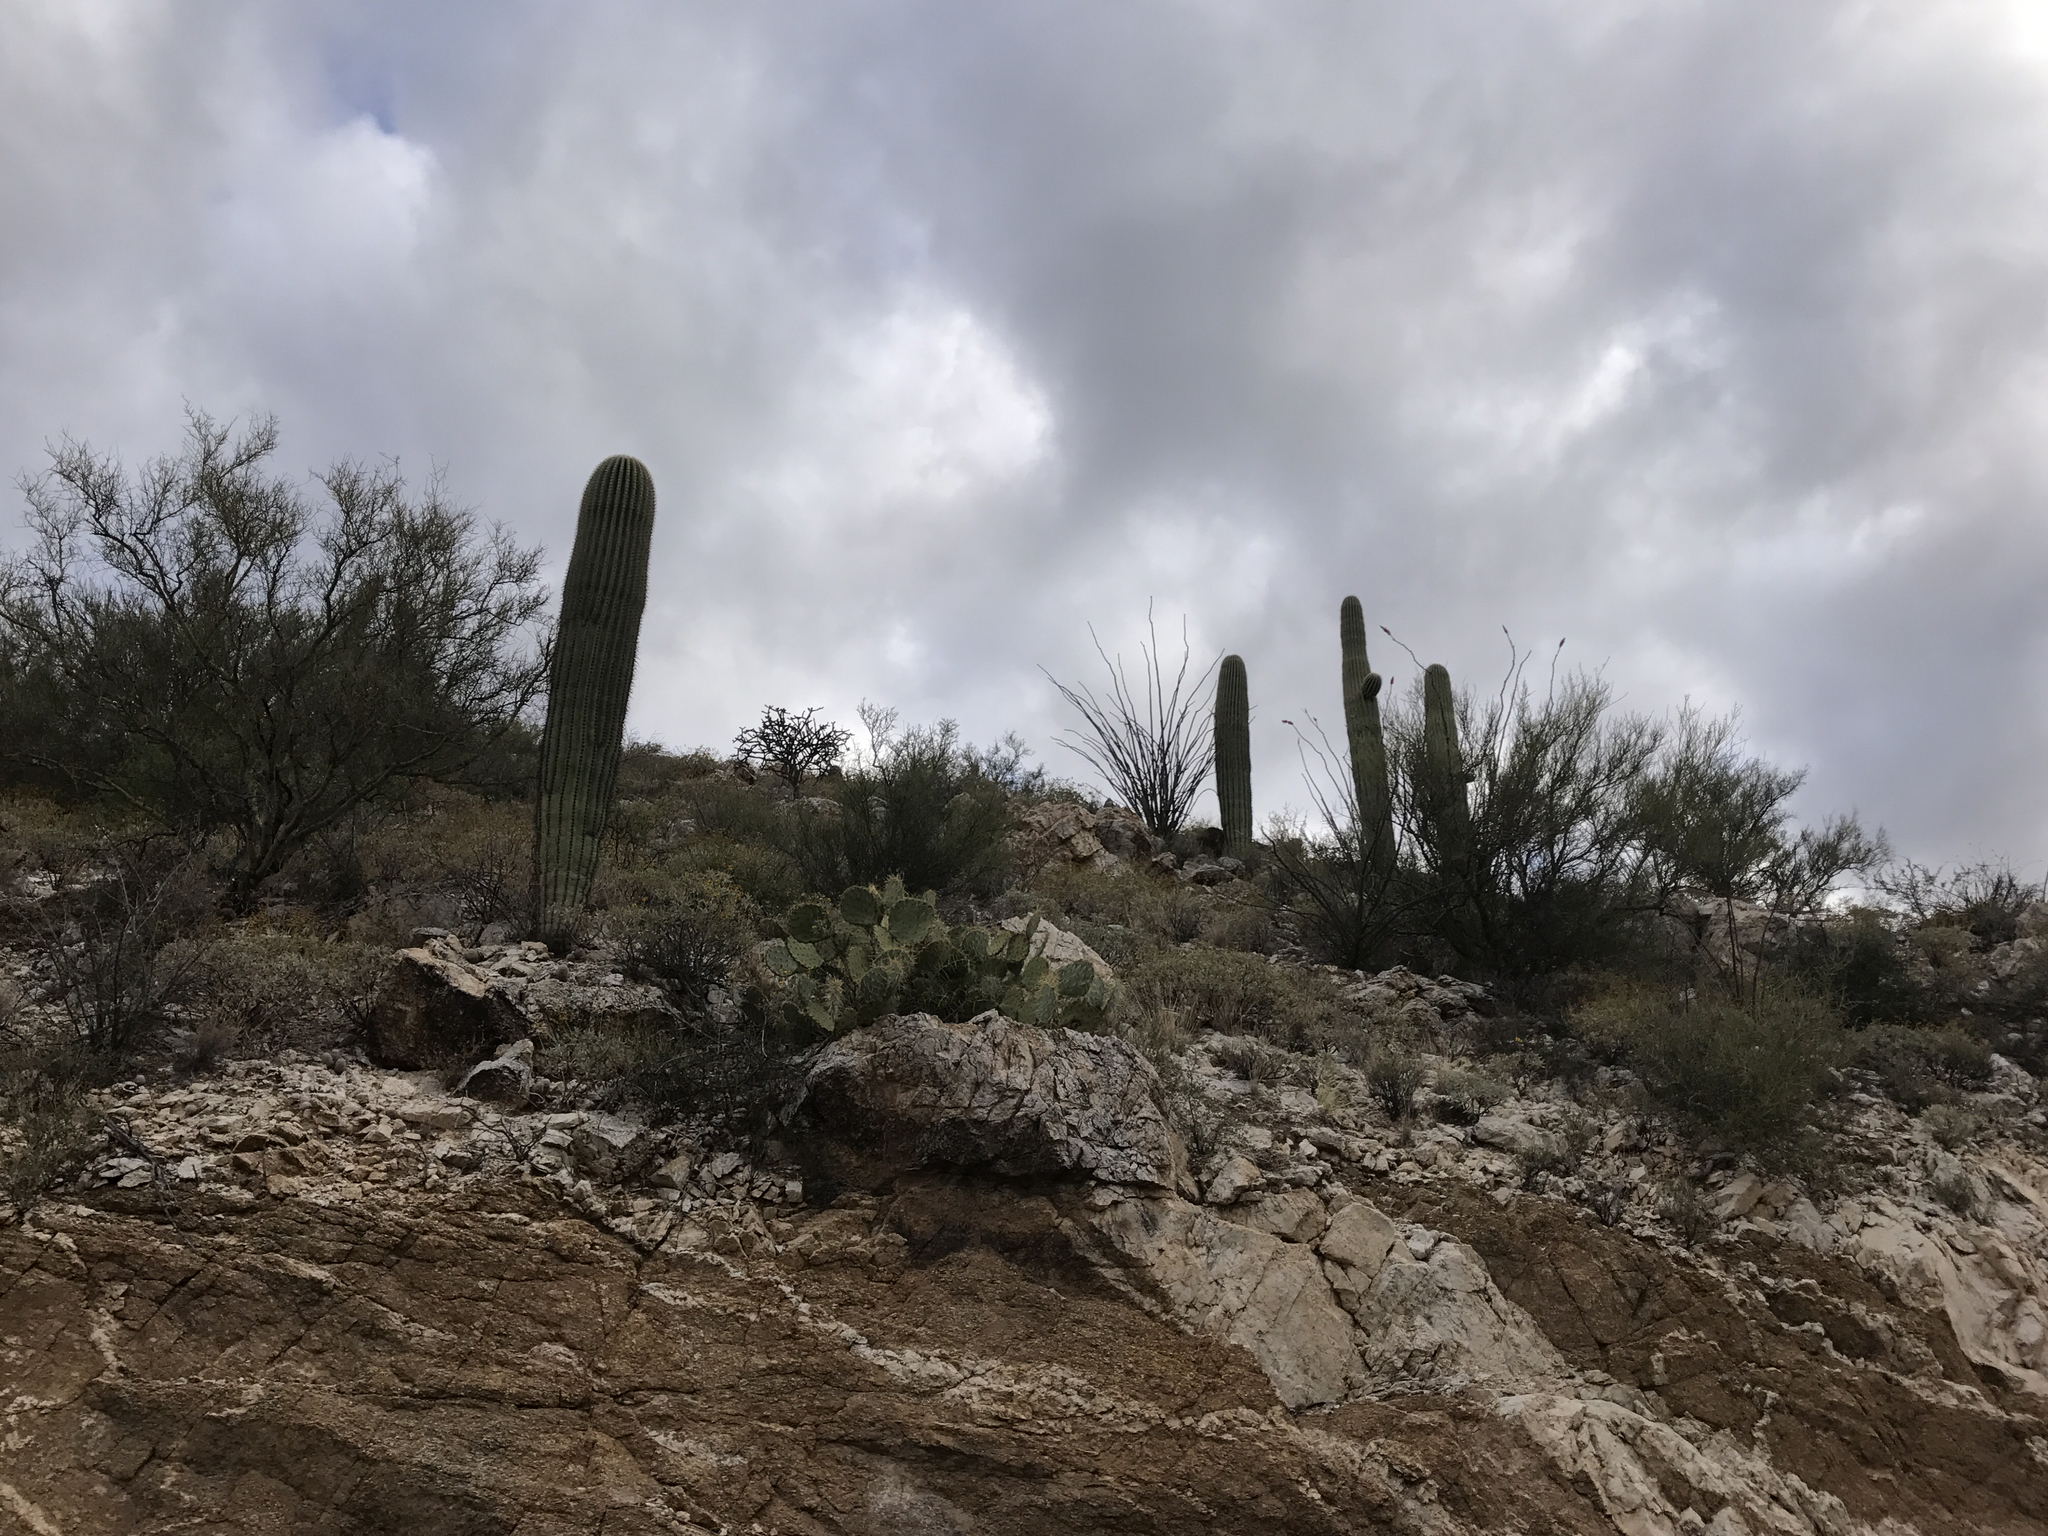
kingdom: Plantae
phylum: Tracheophyta
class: Magnoliopsida
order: Caryophyllales
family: Cactaceae
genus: Carnegiea
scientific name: Carnegiea gigantea
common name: Saguaro
